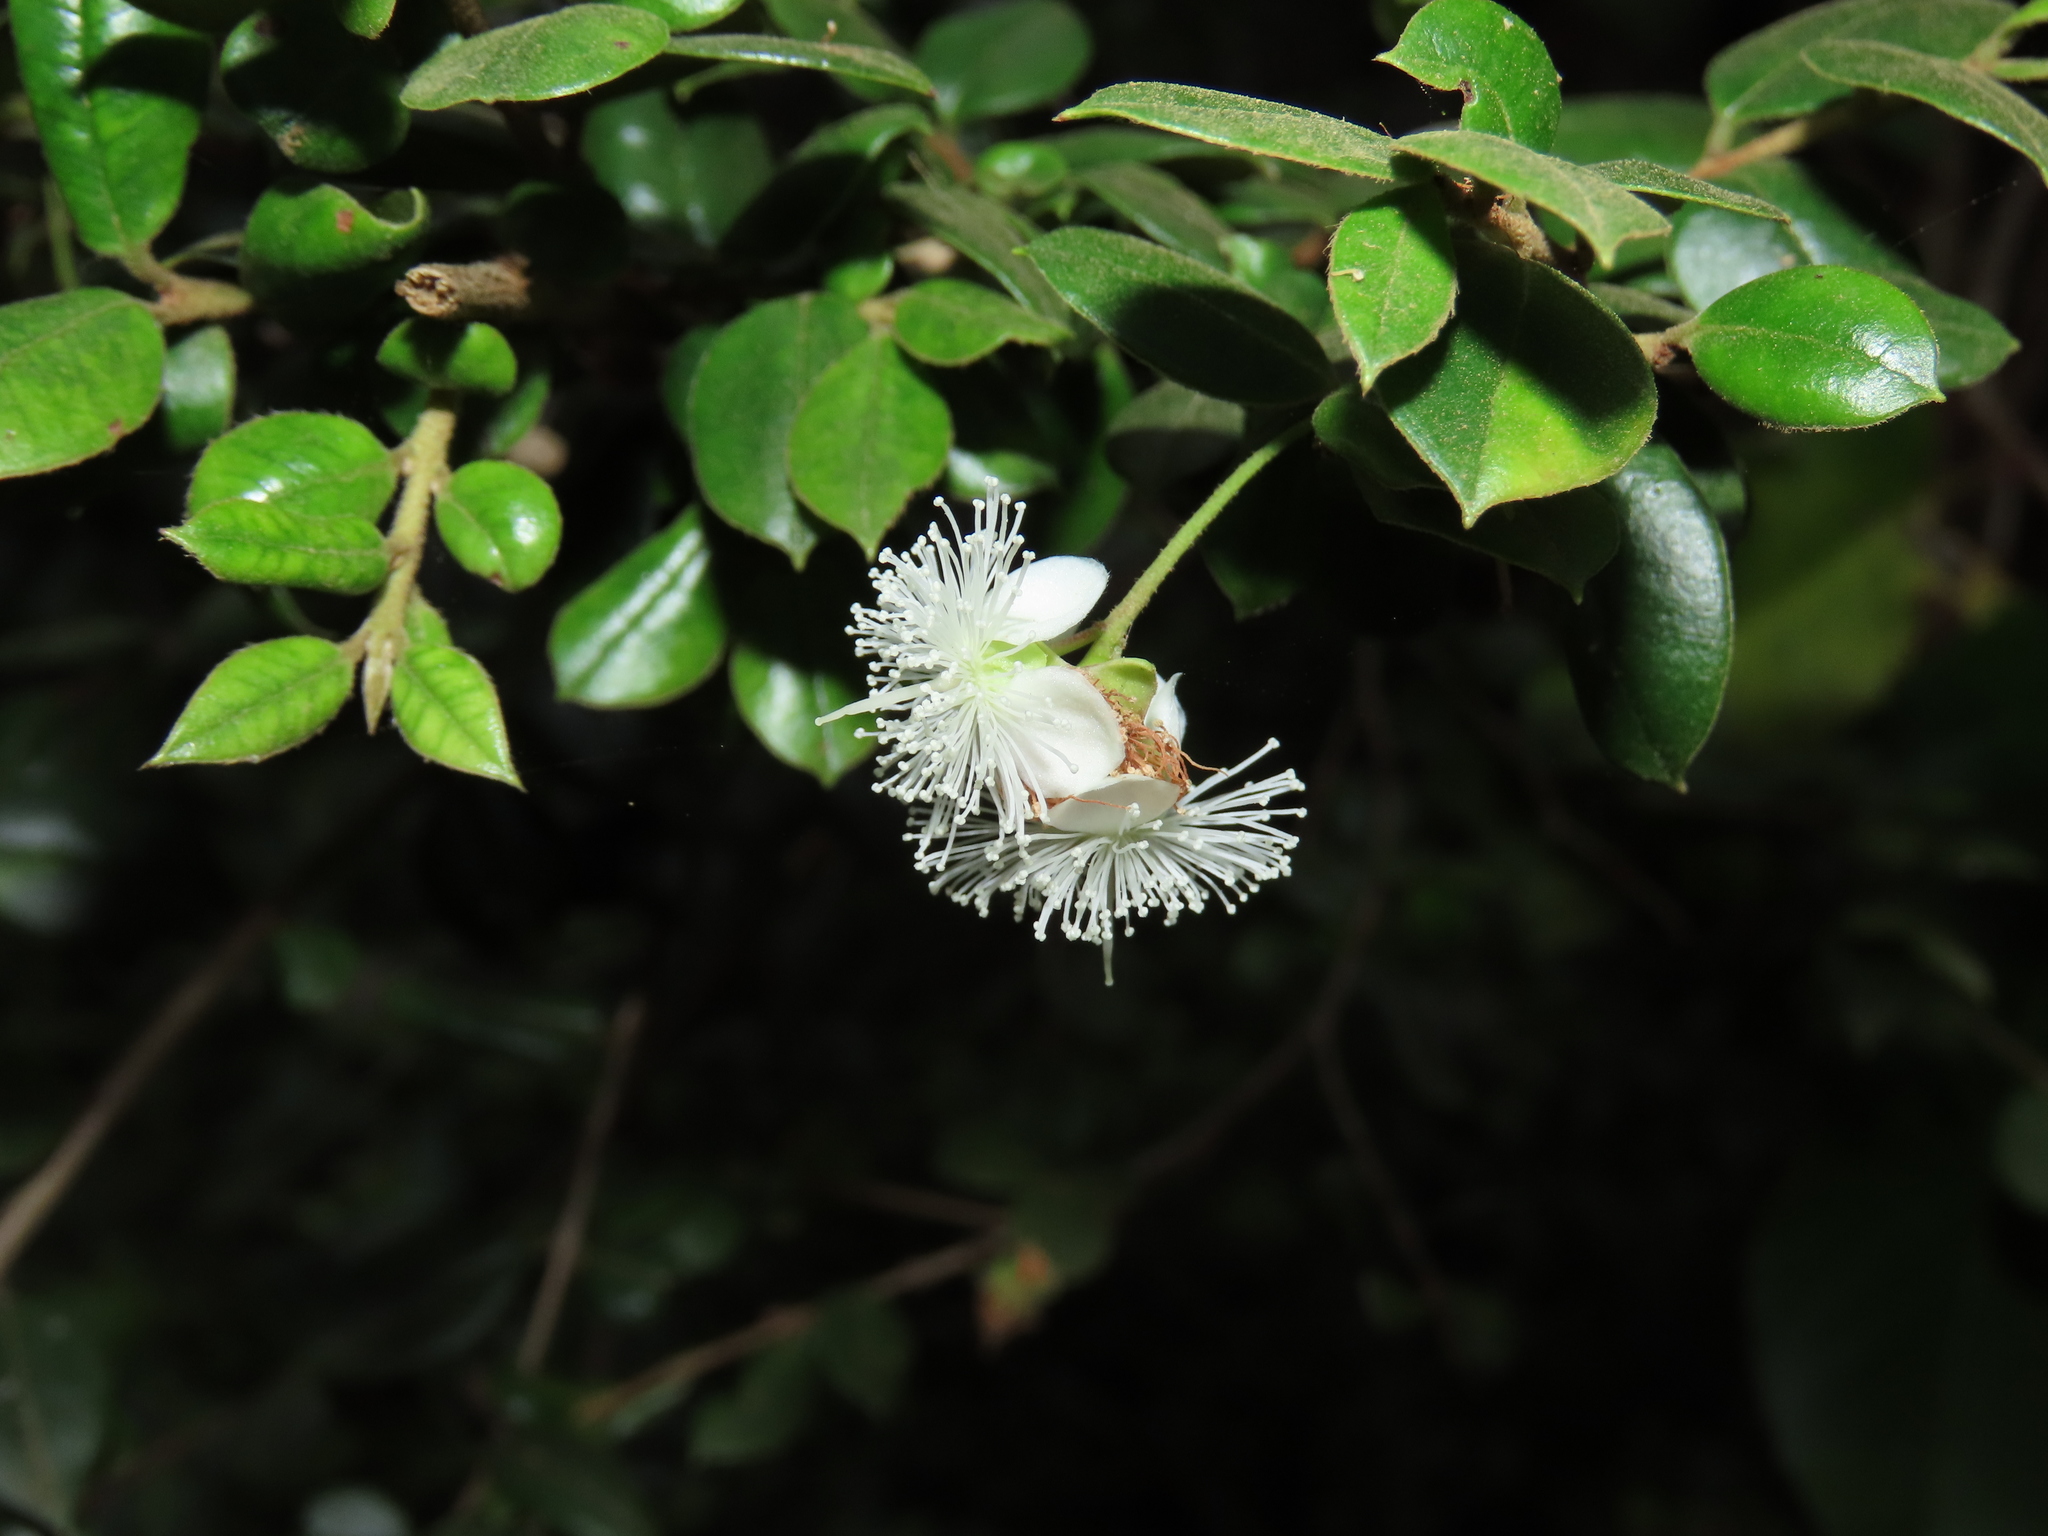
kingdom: Plantae
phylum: Tracheophyta
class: Magnoliopsida
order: Myrtales
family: Myrtaceae
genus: Luma
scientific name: Luma apiculata
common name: Chilean myrtle
